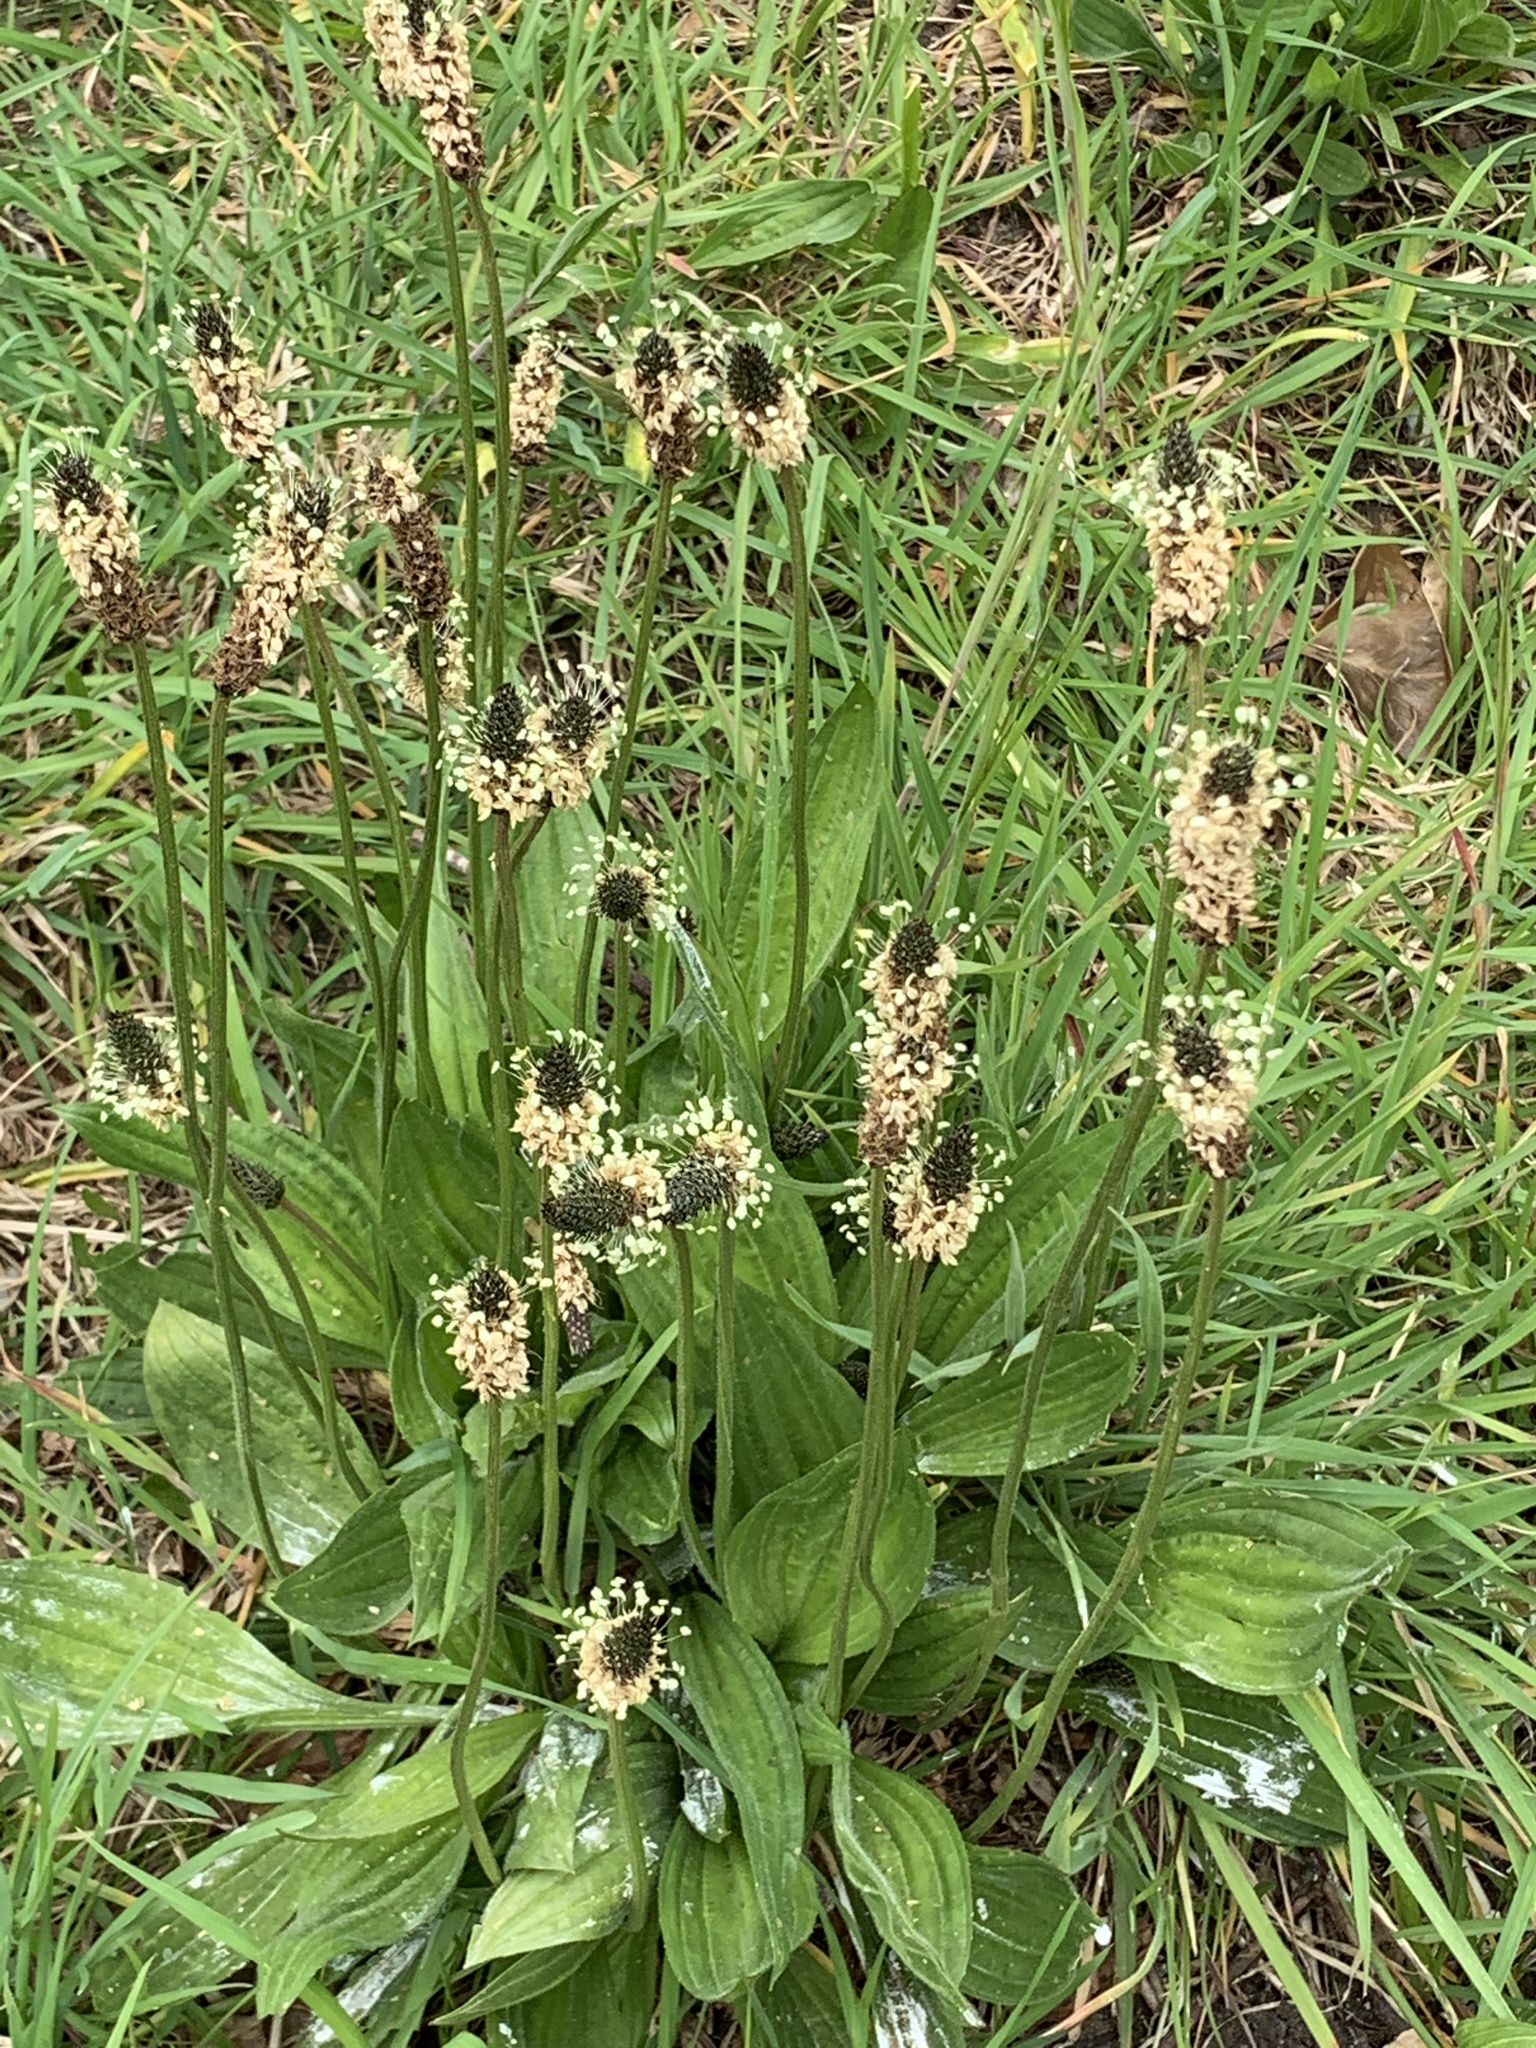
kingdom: Plantae
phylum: Tracheophyta
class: Magnoliopsida
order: Lamiales
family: Plantaginaceae
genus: Plantago
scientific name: Plantago lanceolata
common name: Ribwort plantain
